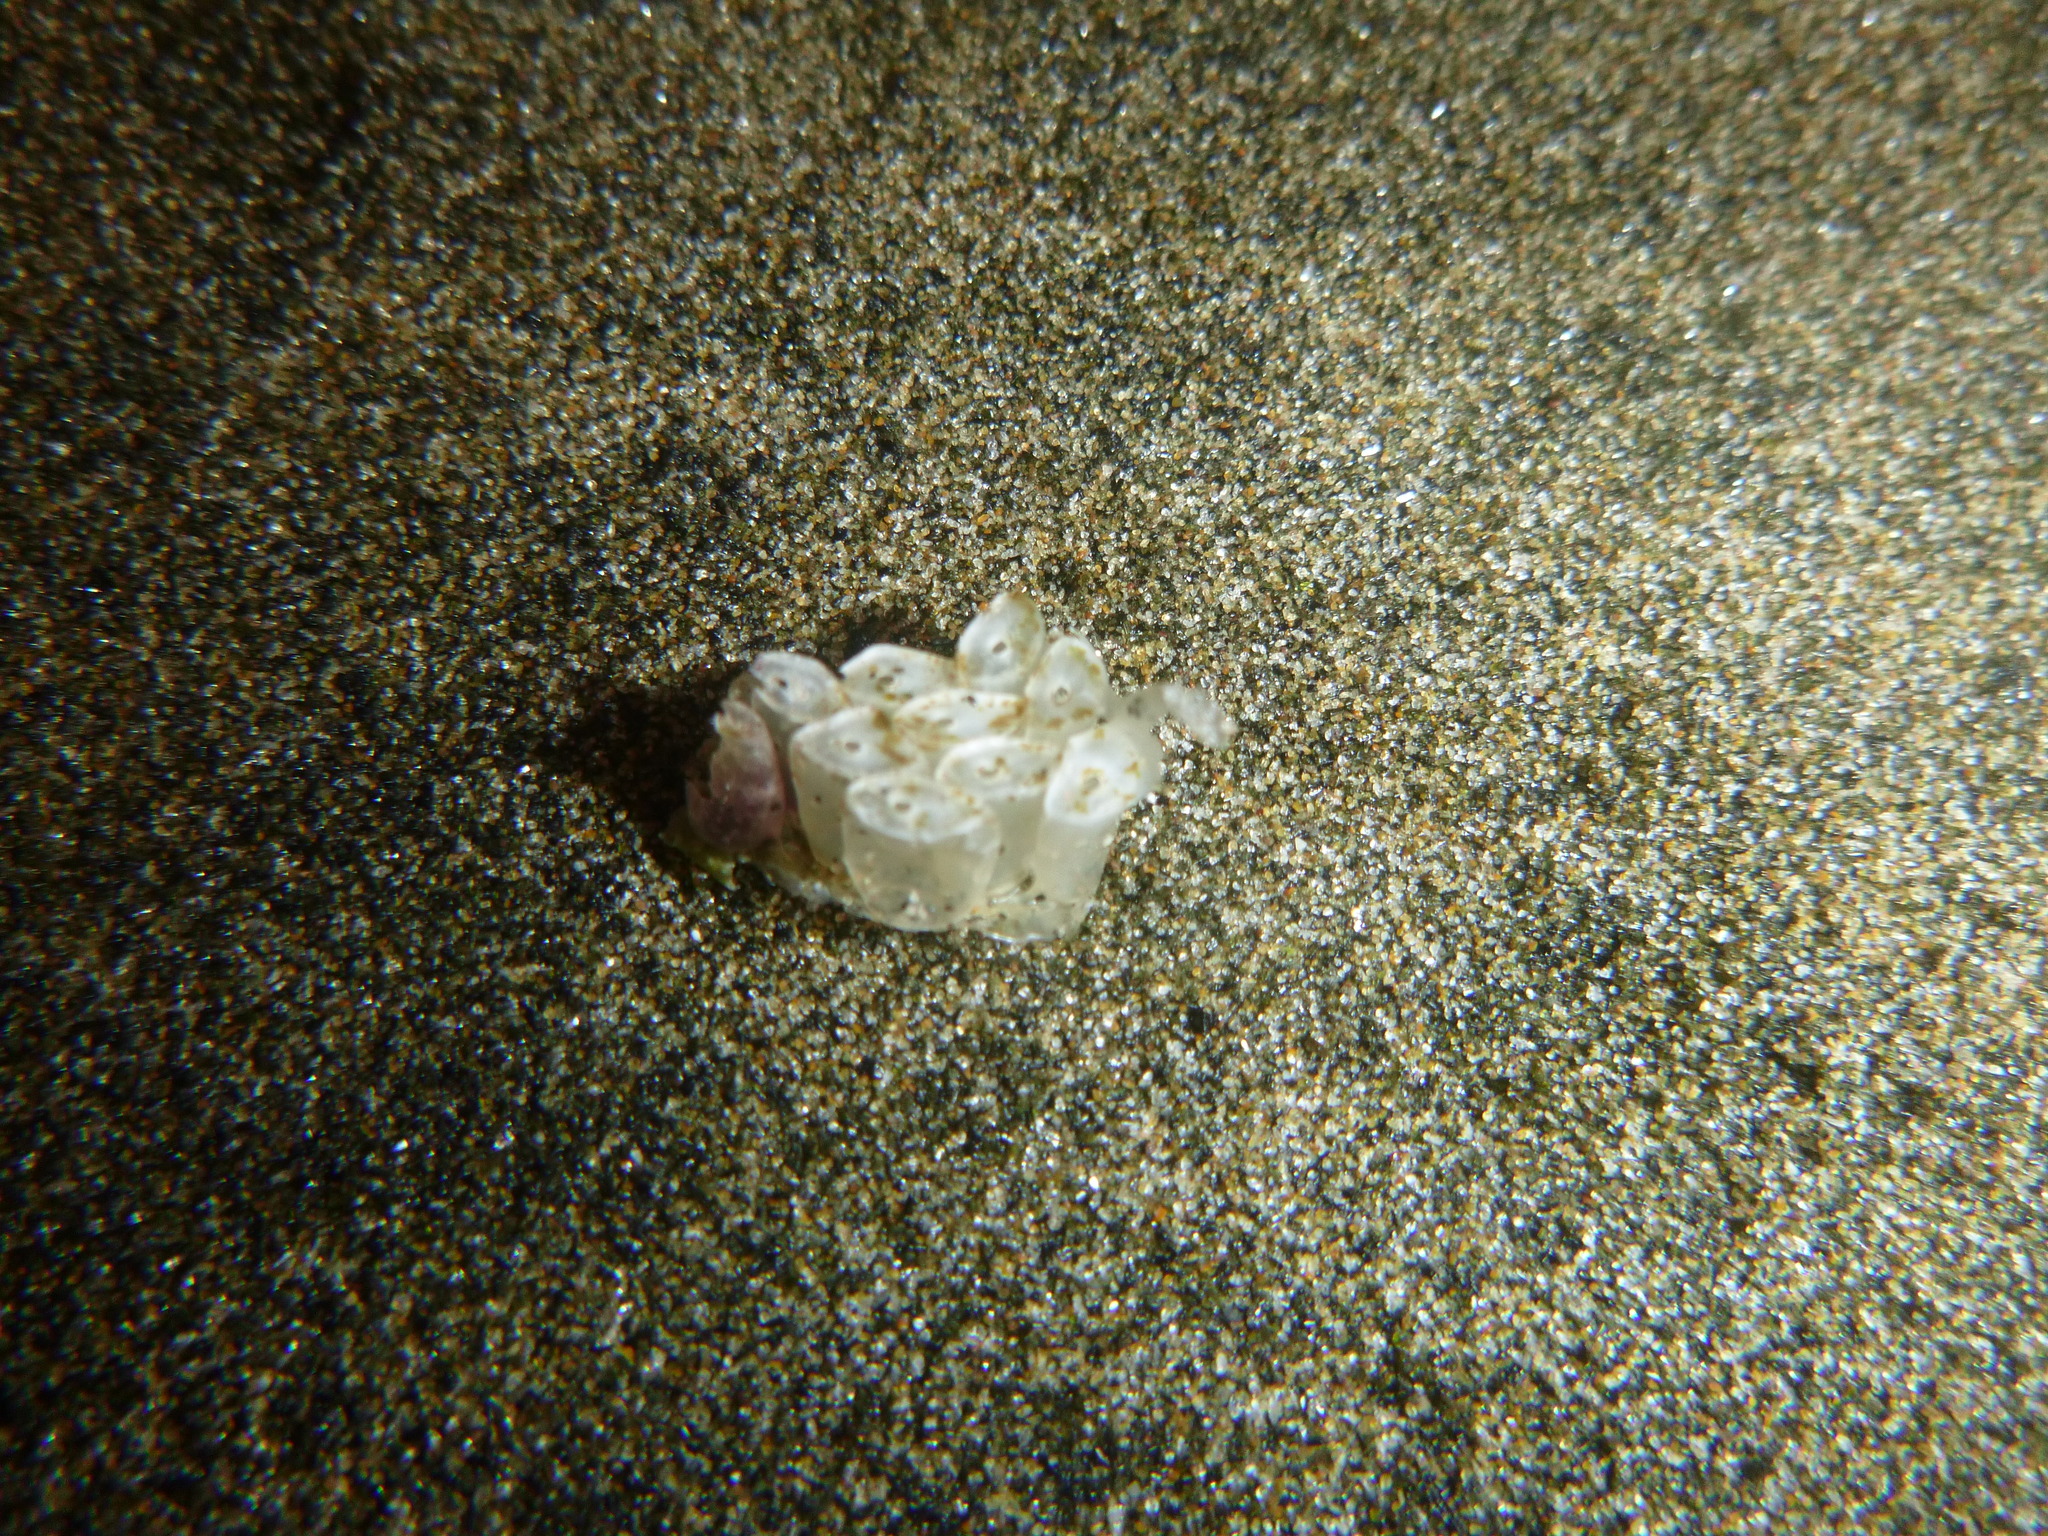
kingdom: Animalia
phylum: Mollusca
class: Gastropoda
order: Neogastropoda
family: Muricidae
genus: Dicathais
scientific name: Dicathais orbita
